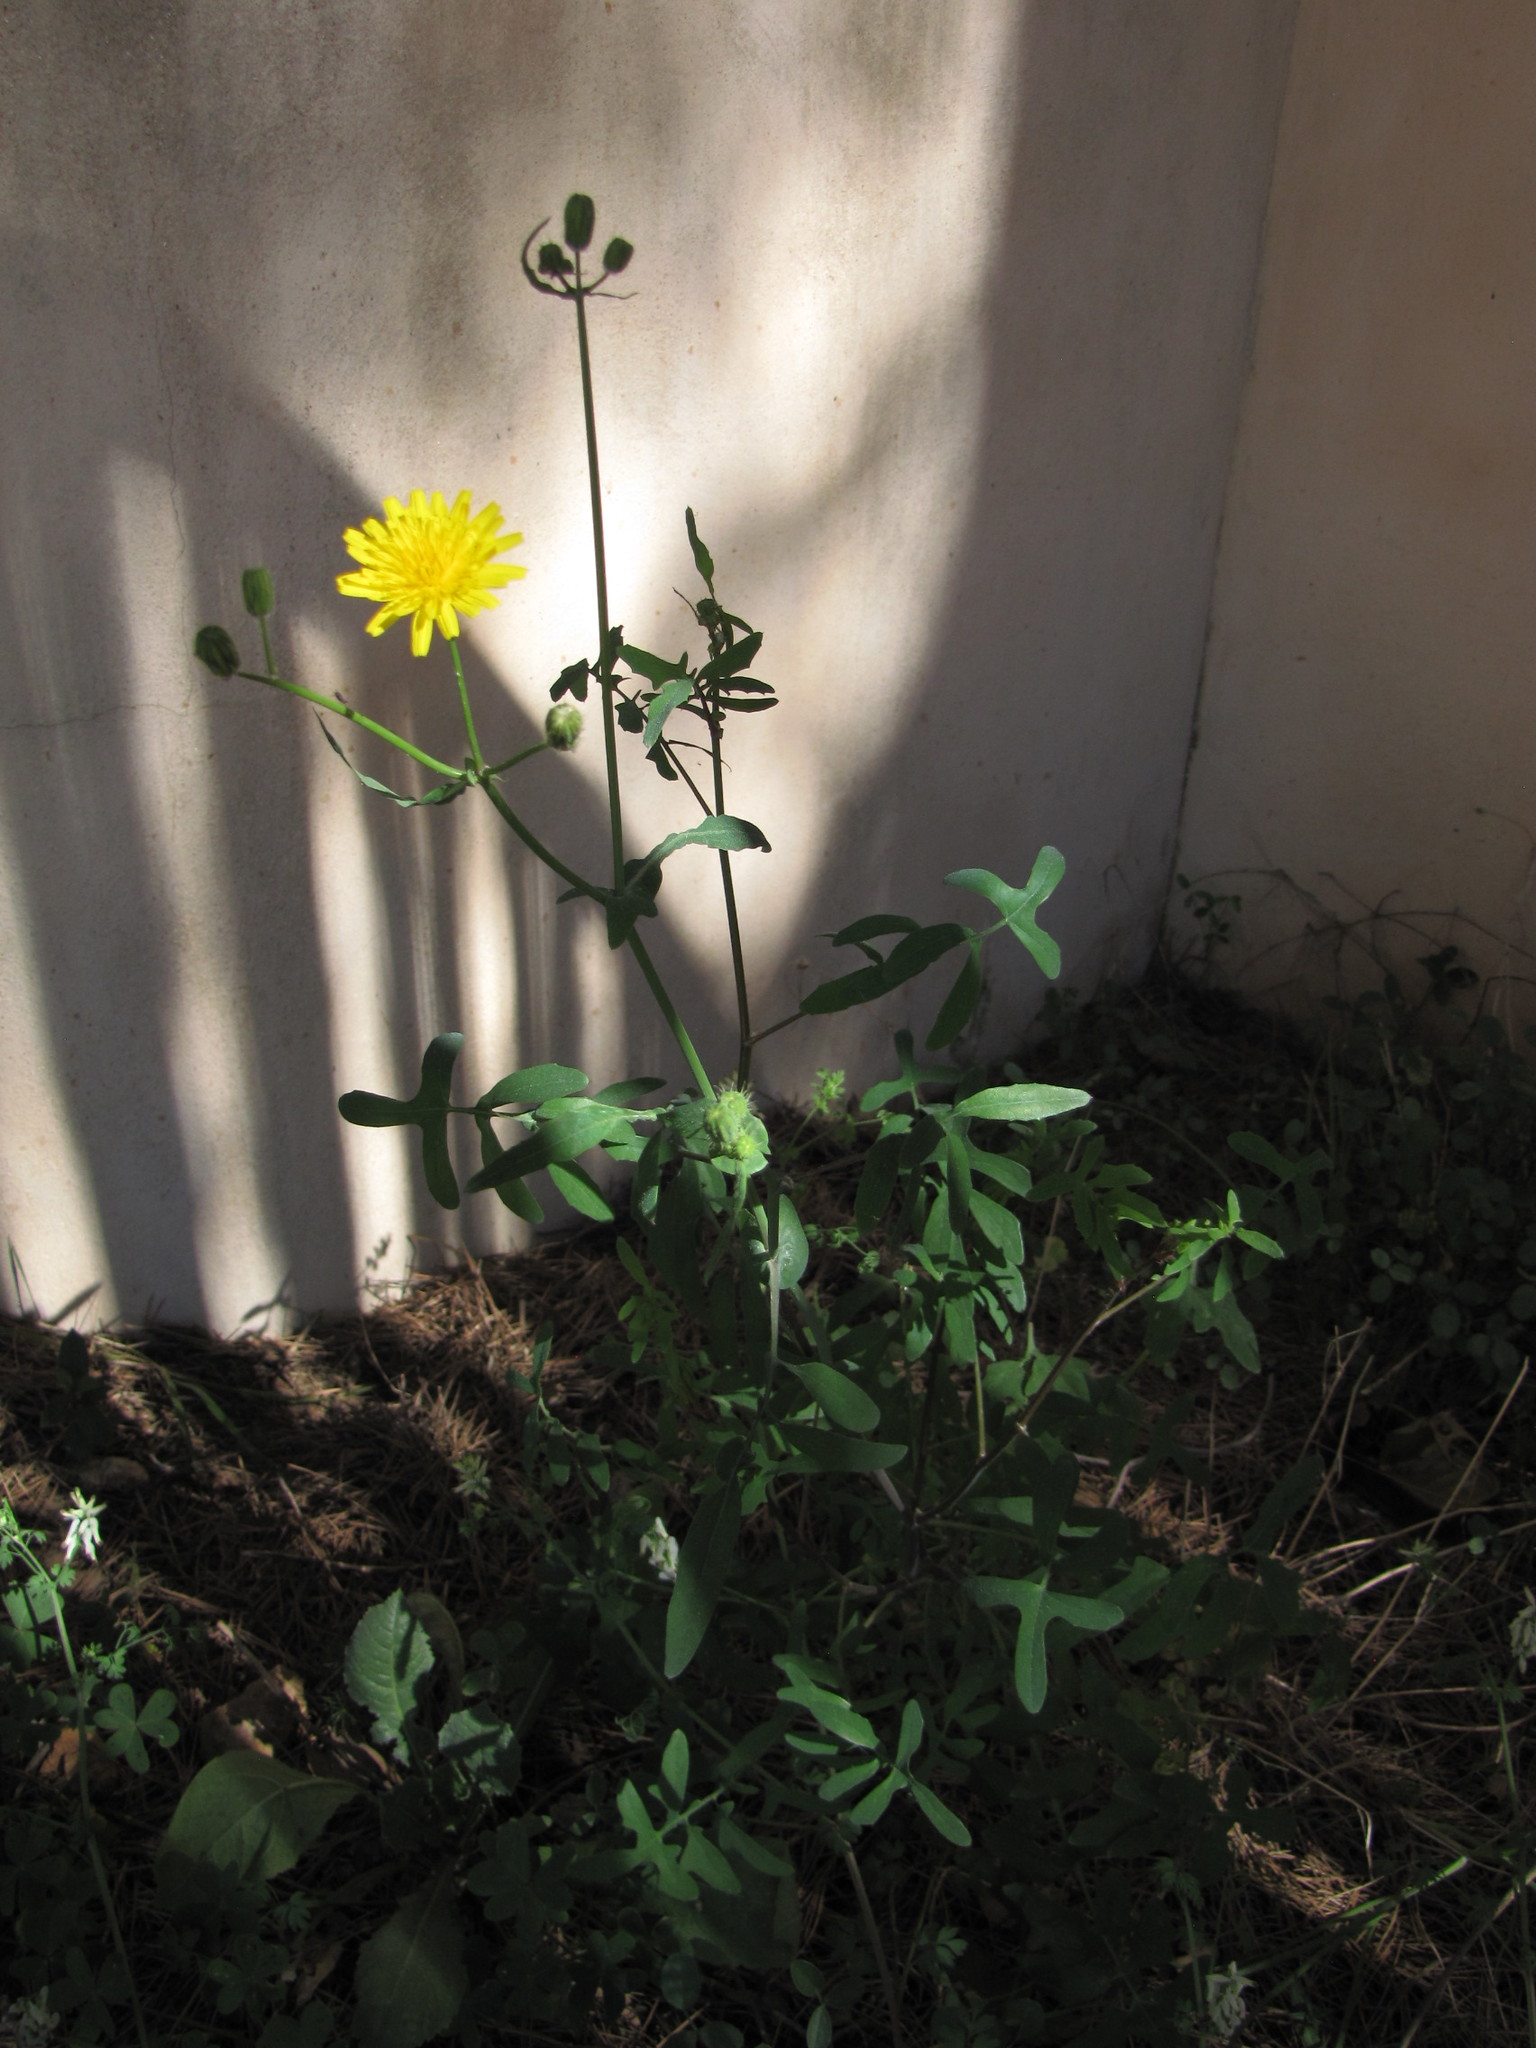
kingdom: Plantae
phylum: Tracheophyta
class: Magnoliopsida
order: Asterales
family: Asteraceae
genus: Sonchus
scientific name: Sonchus tenerrimus
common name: Clammy sowthistle
